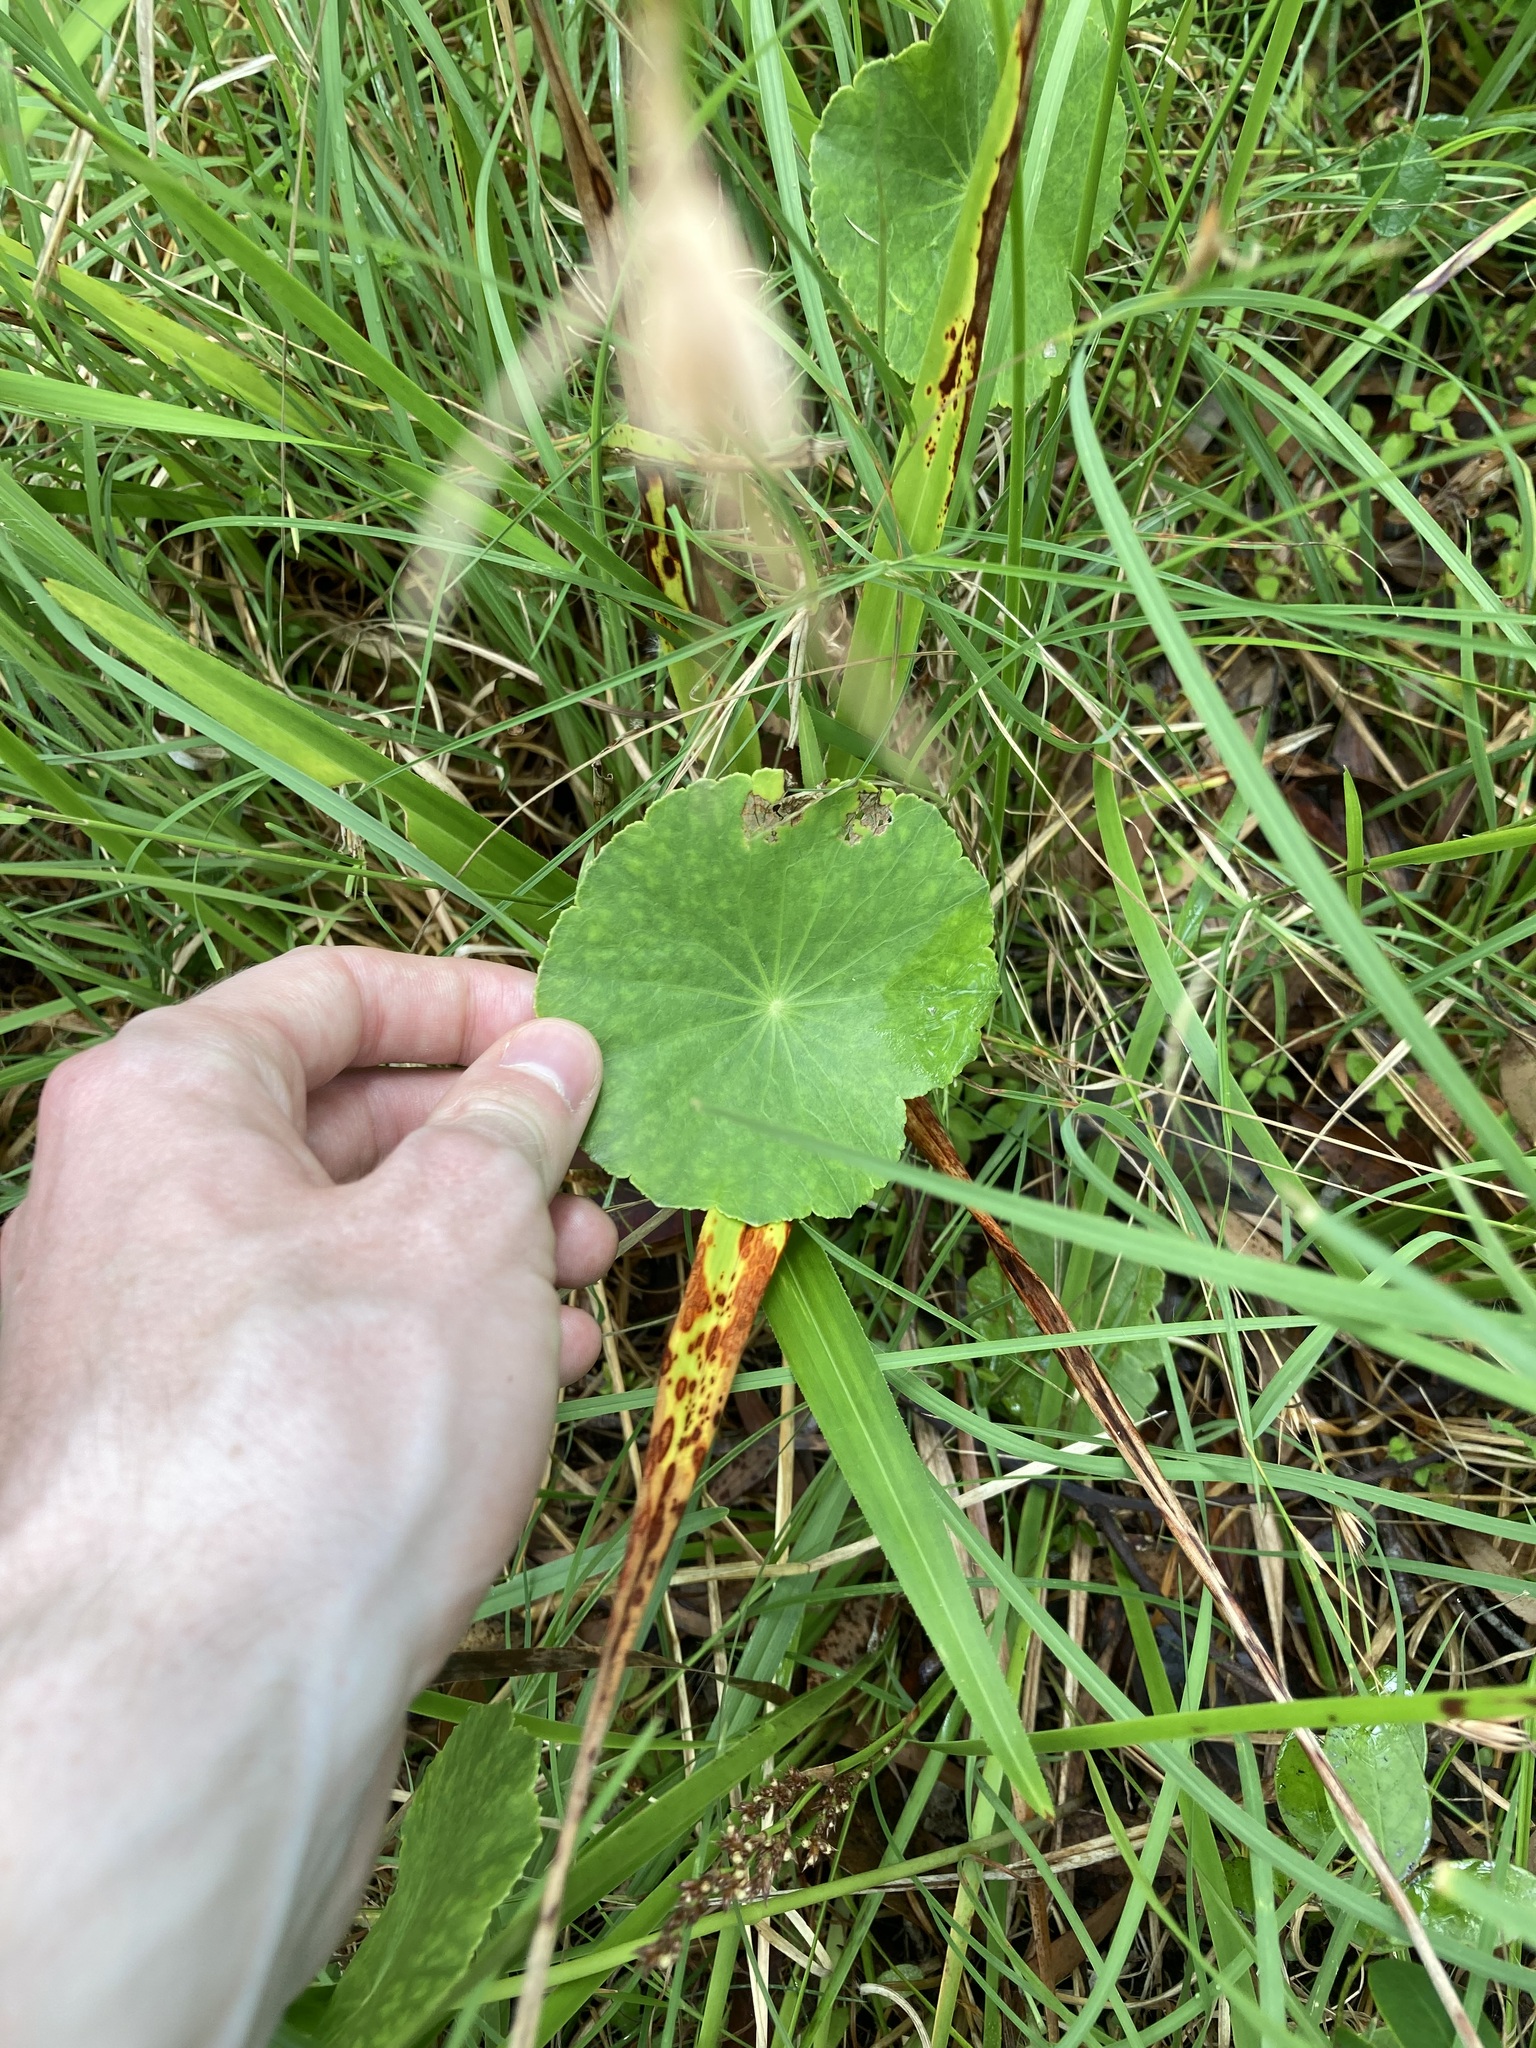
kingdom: Plantae
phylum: Tracheophyta
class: Magnoliopsida
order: Apiales
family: Araliaceae
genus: Hydrocotyle
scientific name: Hydrocotyle bonariensis
